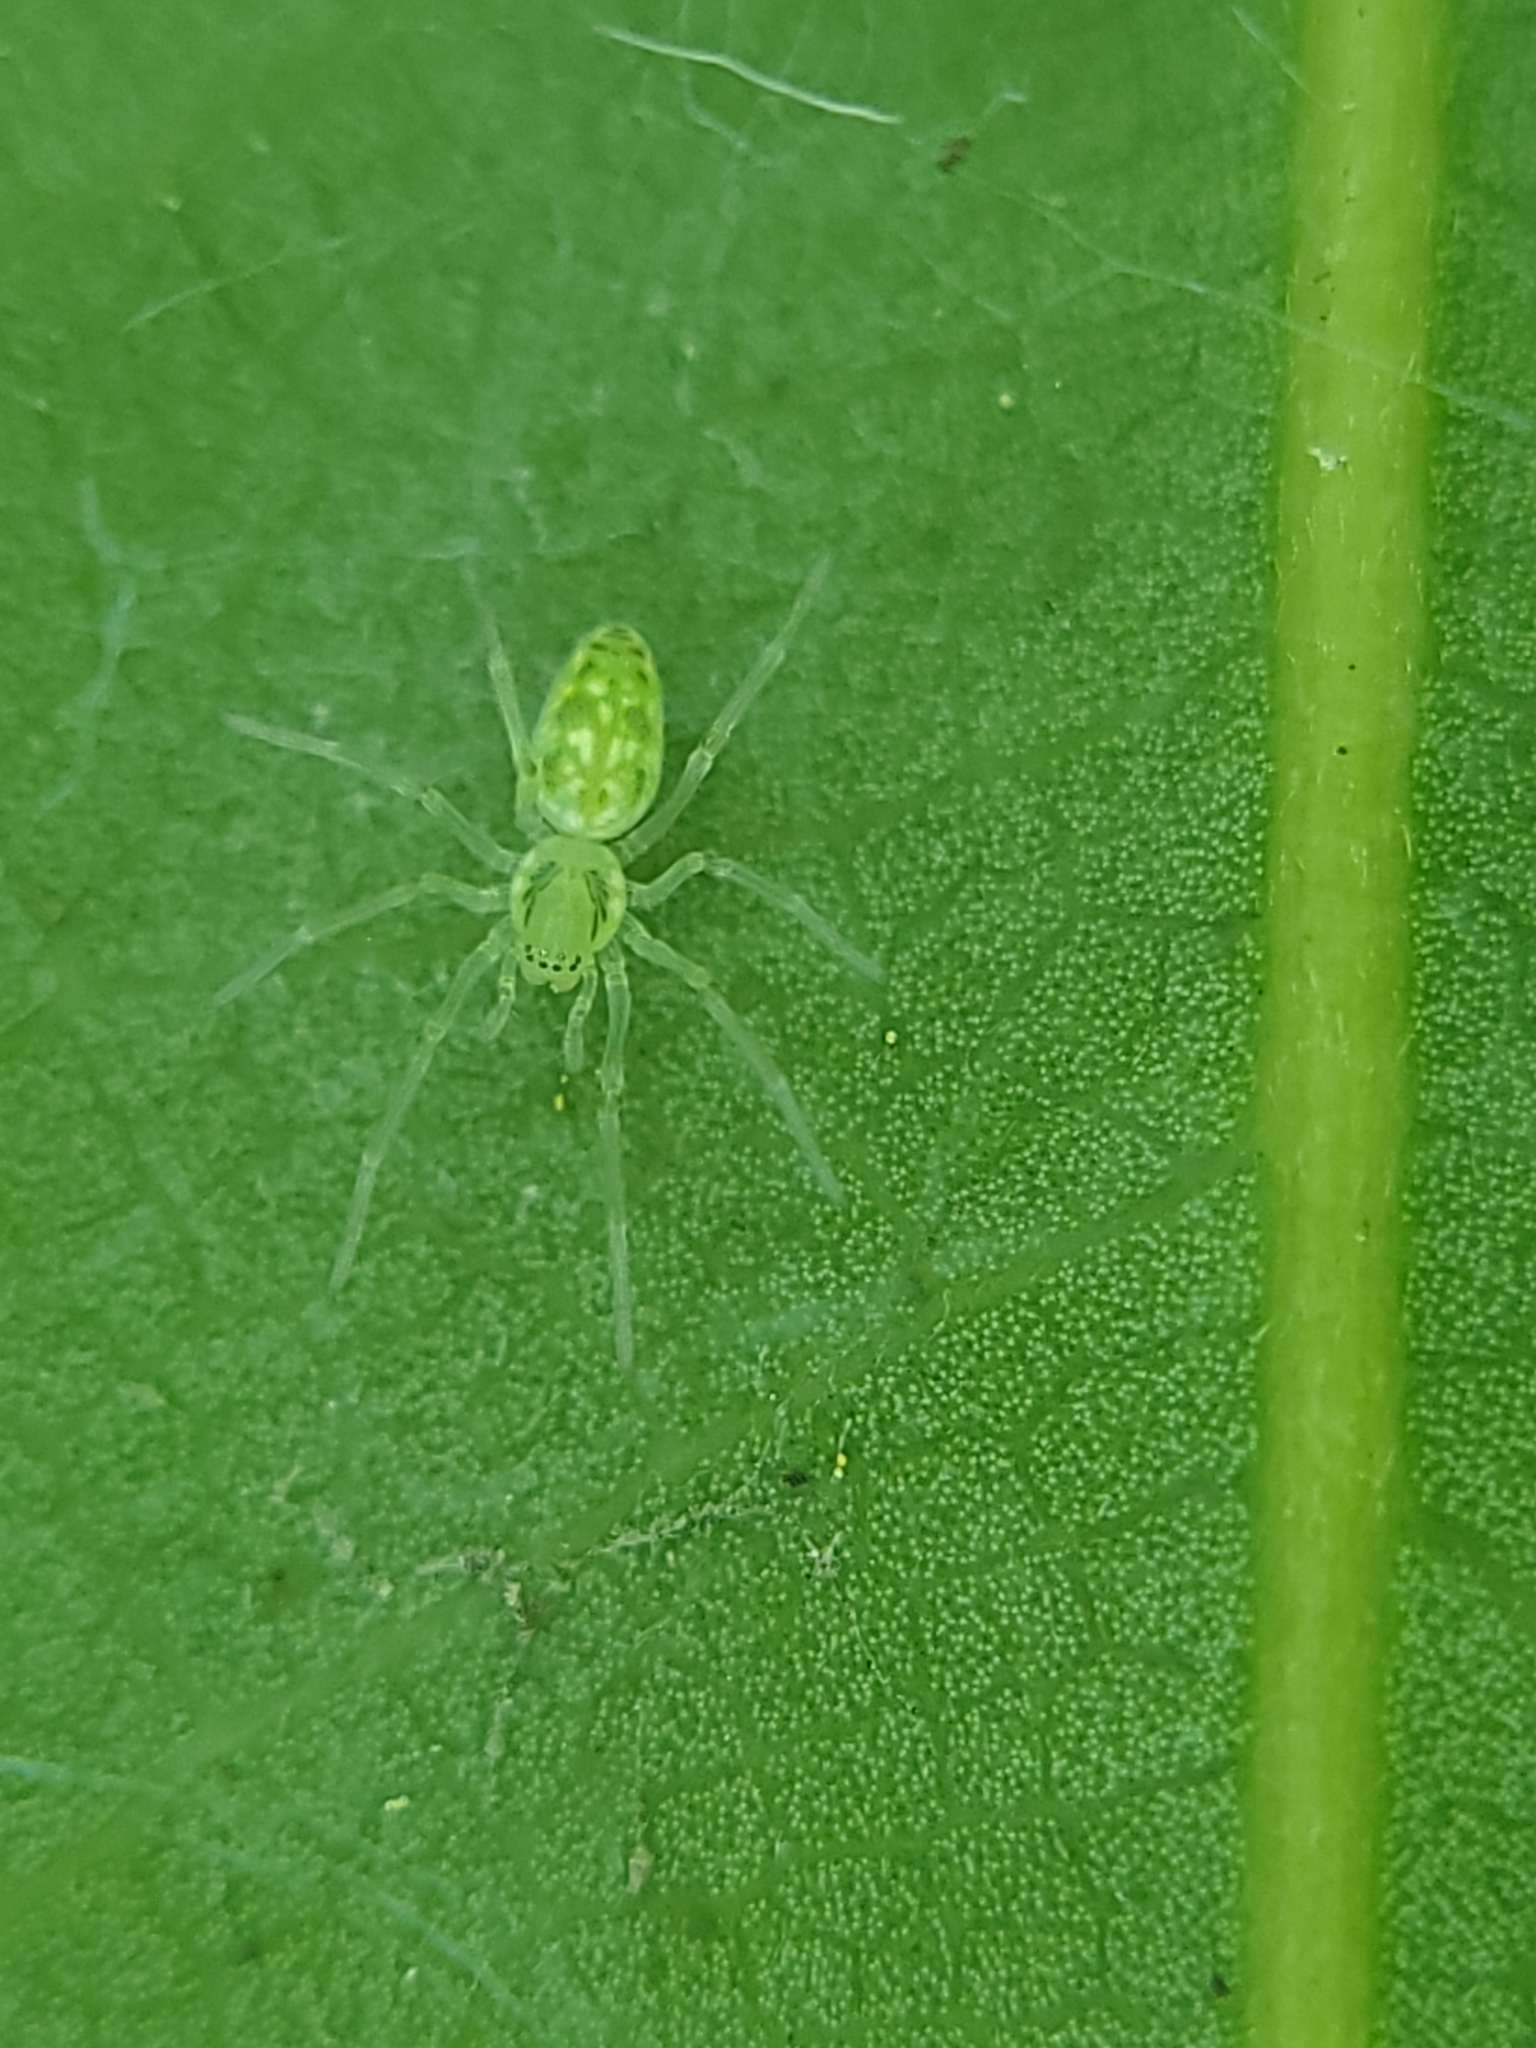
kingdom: Animalia
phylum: Arthropoda
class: Arachnida
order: Araneae
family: Dictynidae
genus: Nigma
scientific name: Nigma linsdalei
